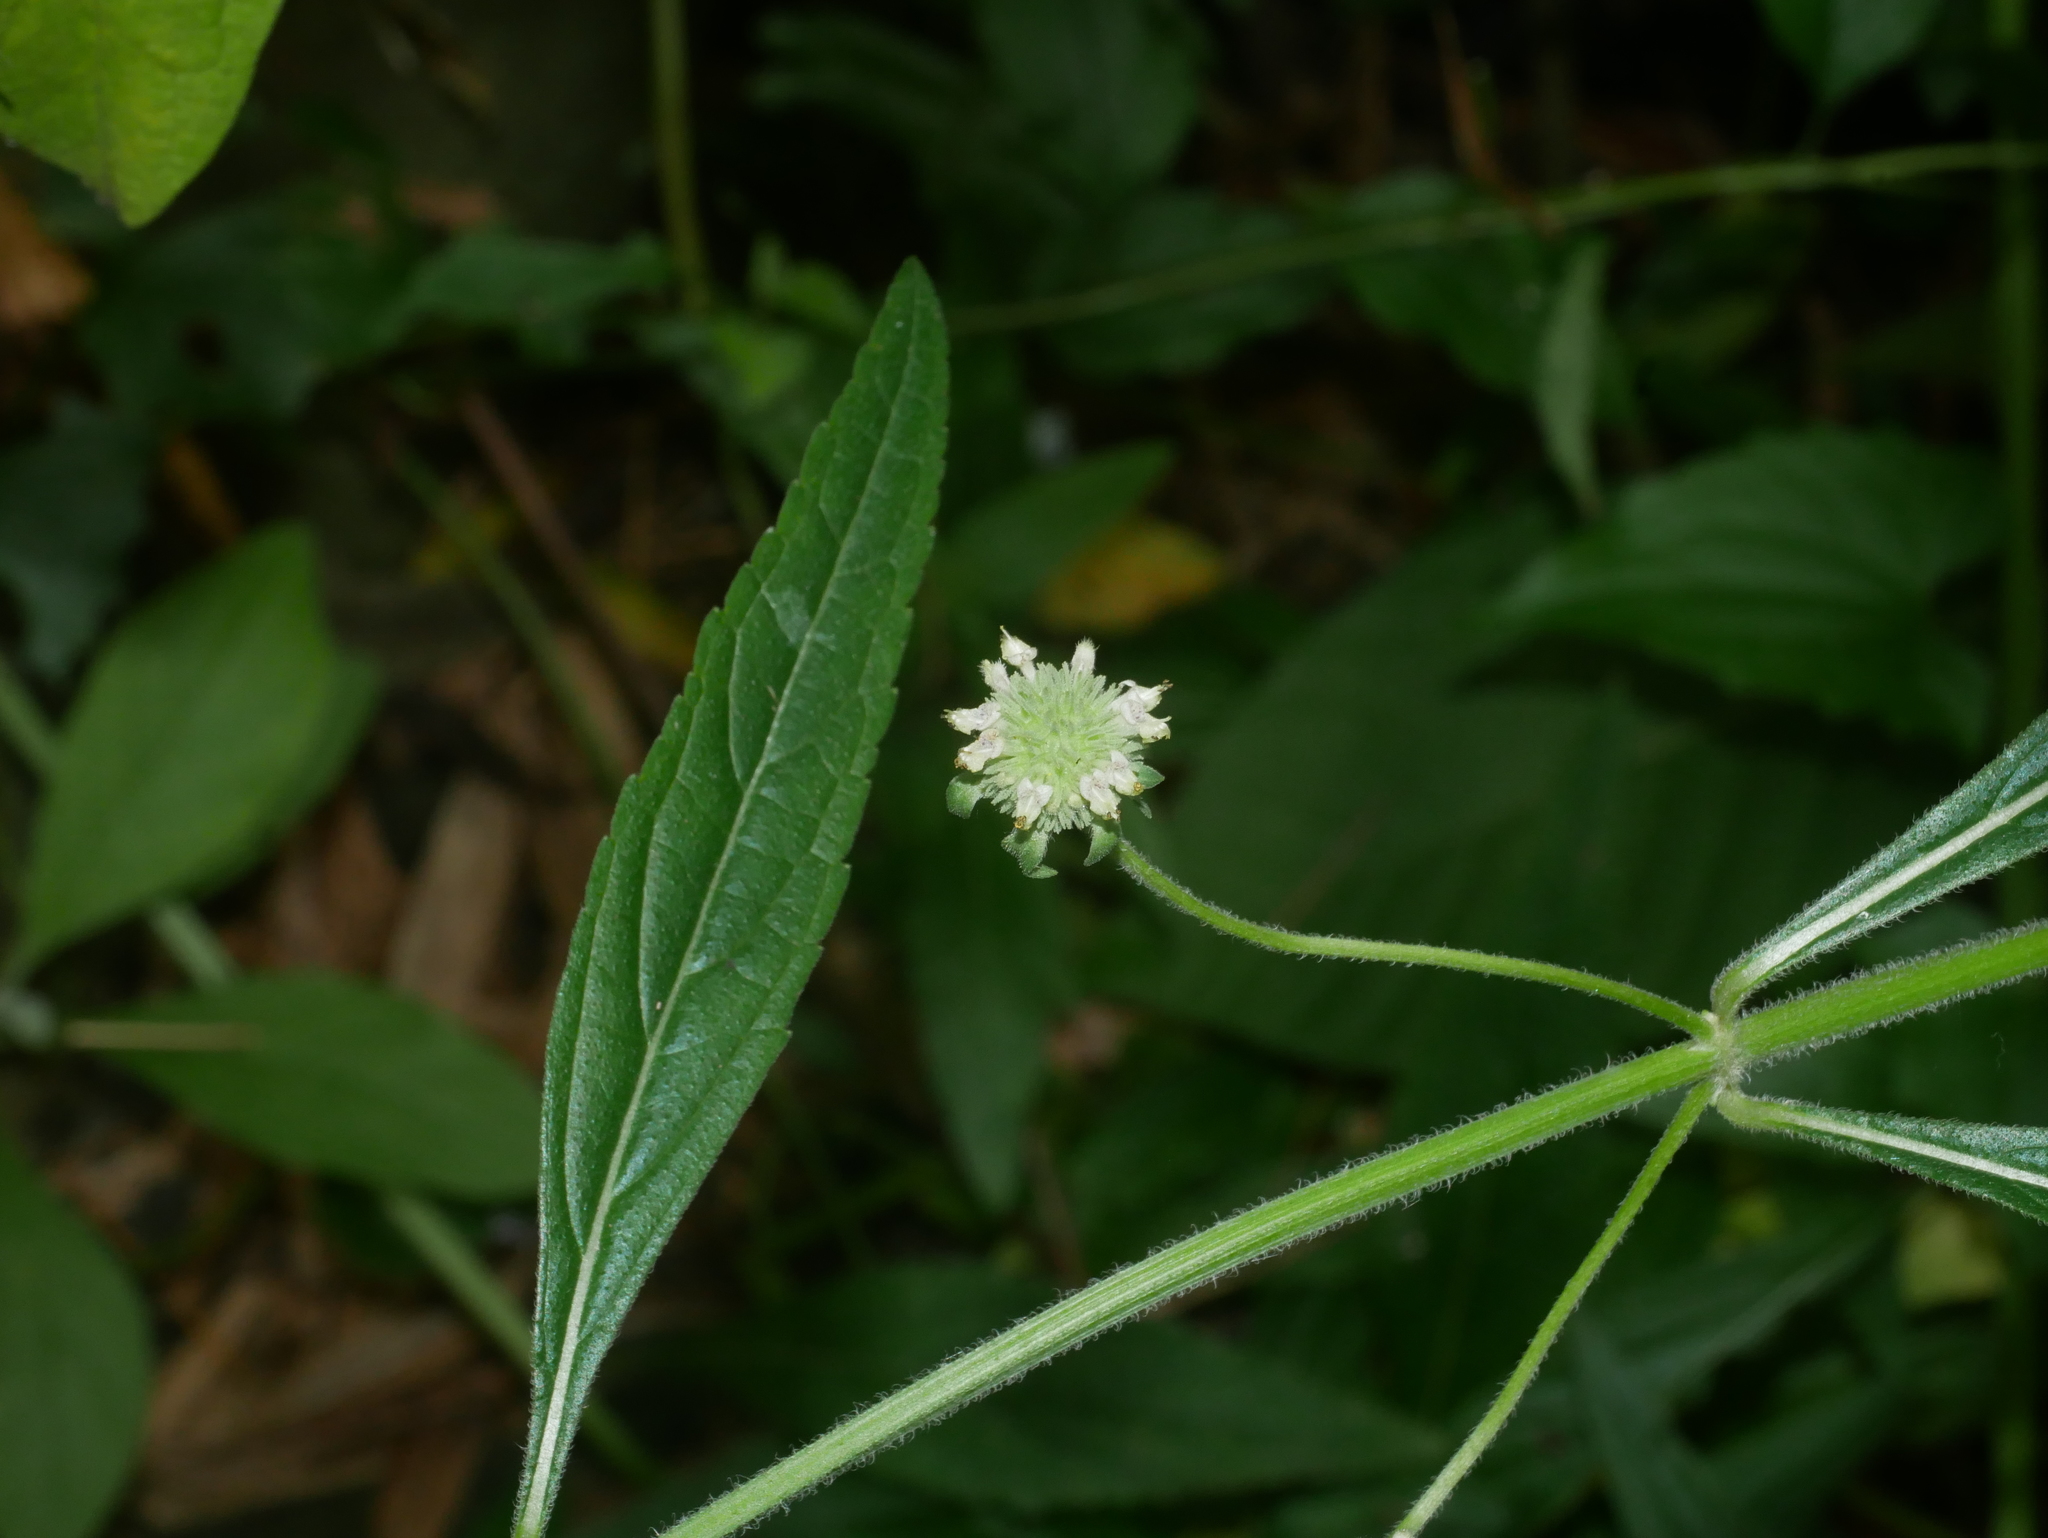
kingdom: Plantae
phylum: Tracheophyta
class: Magnoliopsida
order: Lamiales
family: Lamiaceae
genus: Hyptis
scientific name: Hyptis capitata
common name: False ironwort
